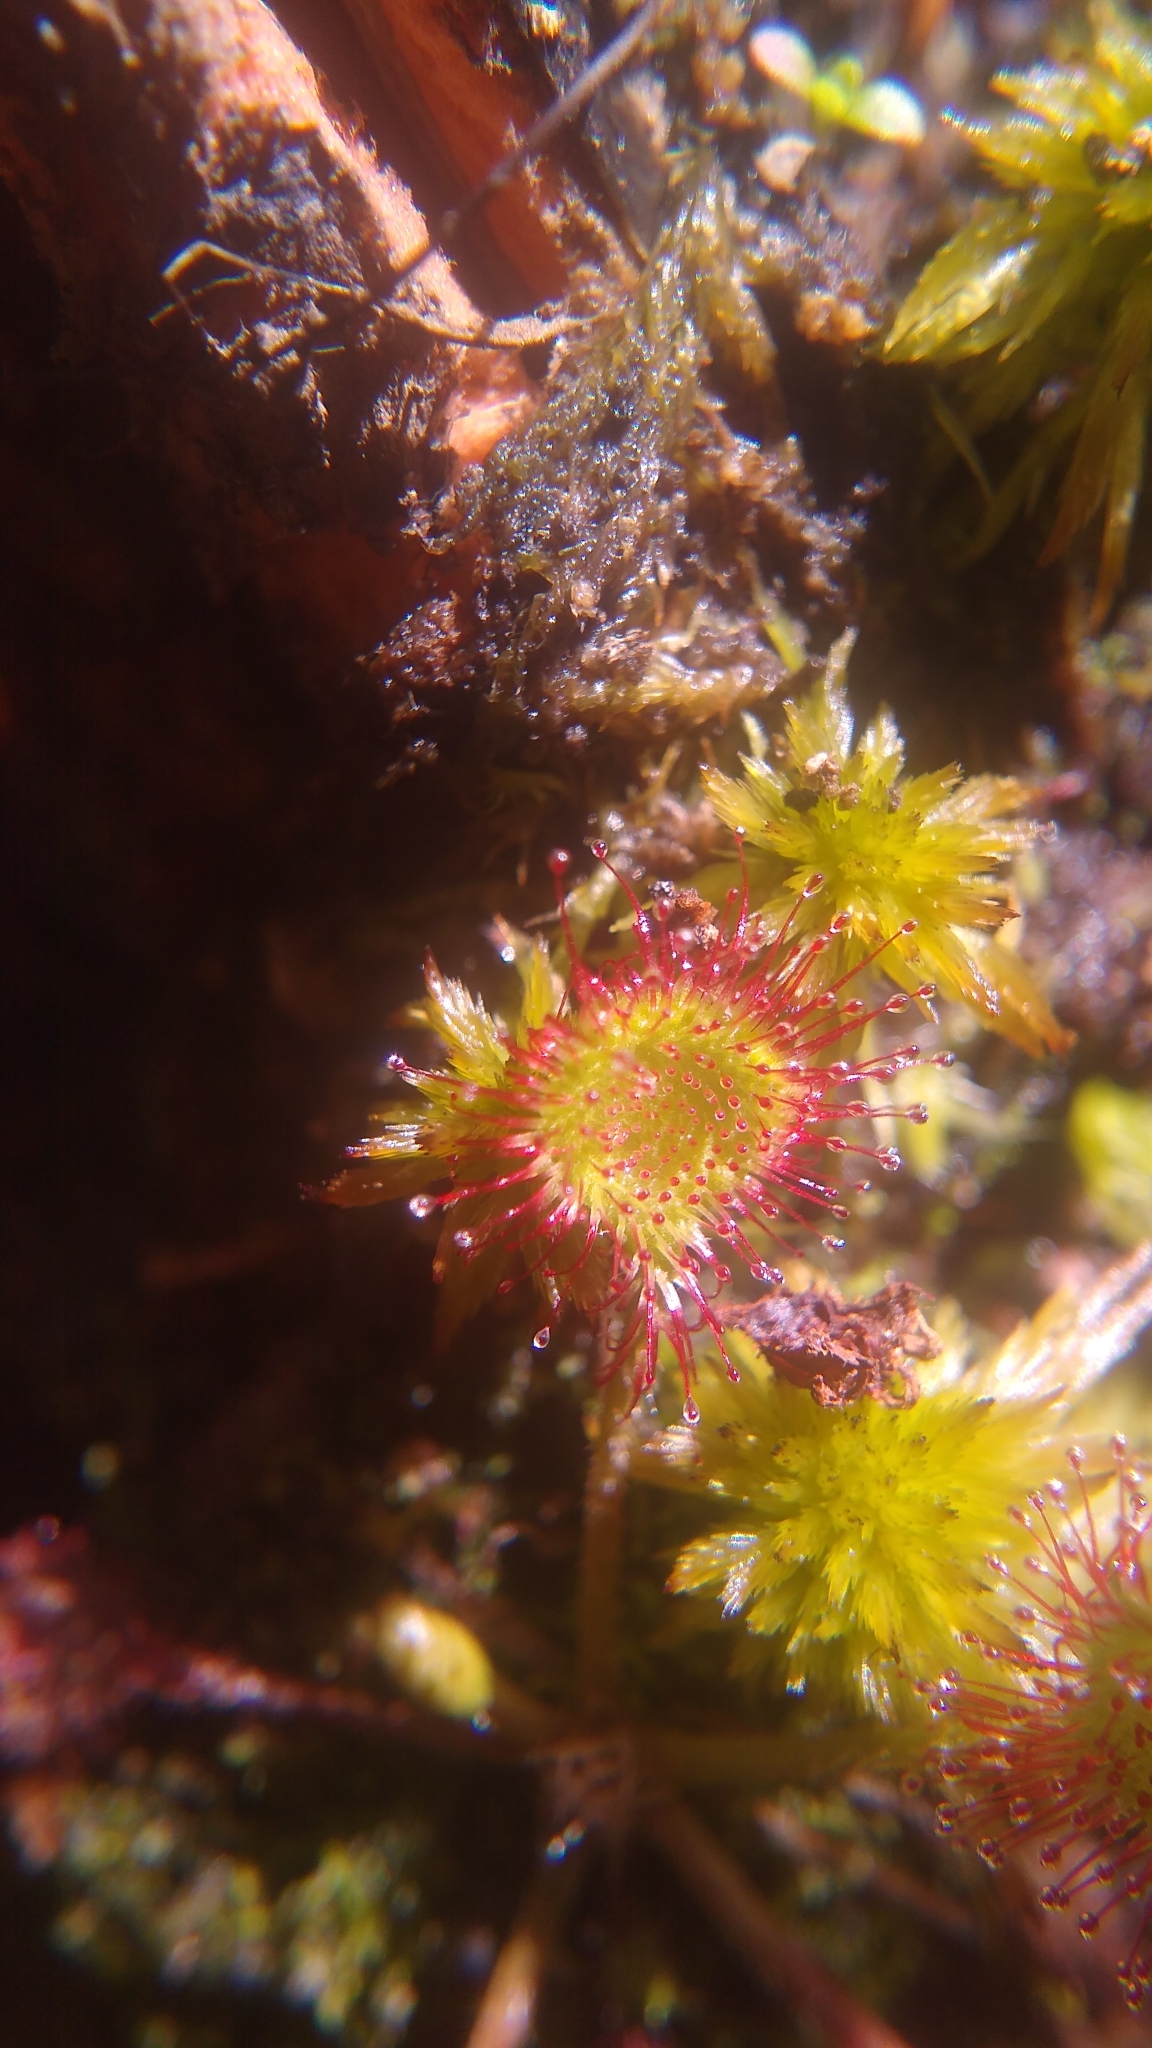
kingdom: Plantae
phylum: Tracheophyta
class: Magnoliopsida
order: Caryophyllales
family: Droseraceae
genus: Drosera
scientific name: Drosera rotundifolia
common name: Round-leaved sundew
